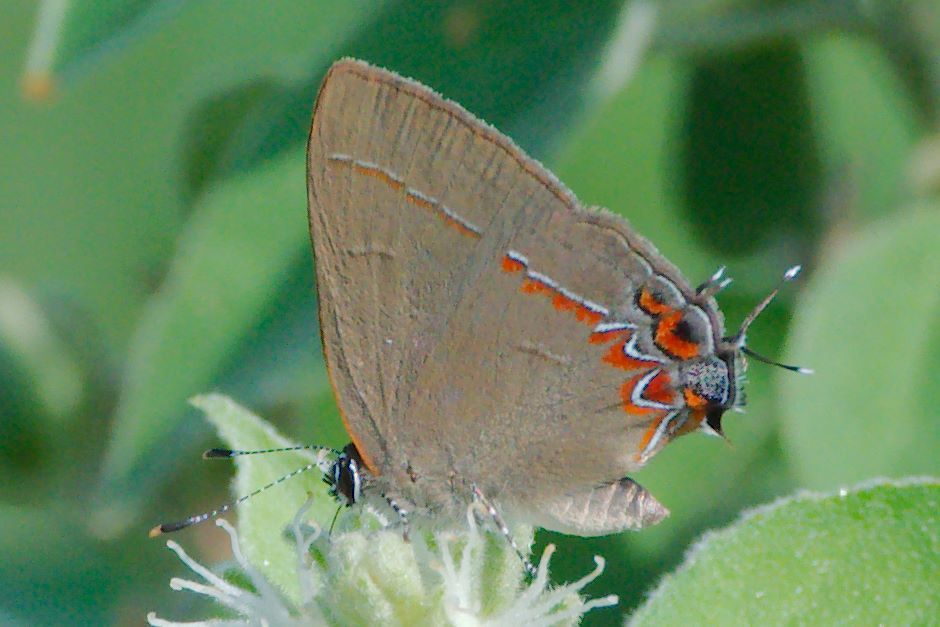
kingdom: Animalia
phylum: Arthropoda
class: Insecta
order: Lepidoptera
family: Lycaenidae
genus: Calycopis
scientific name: Calycopis isobeon
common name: Dusky-blue groundstreak
